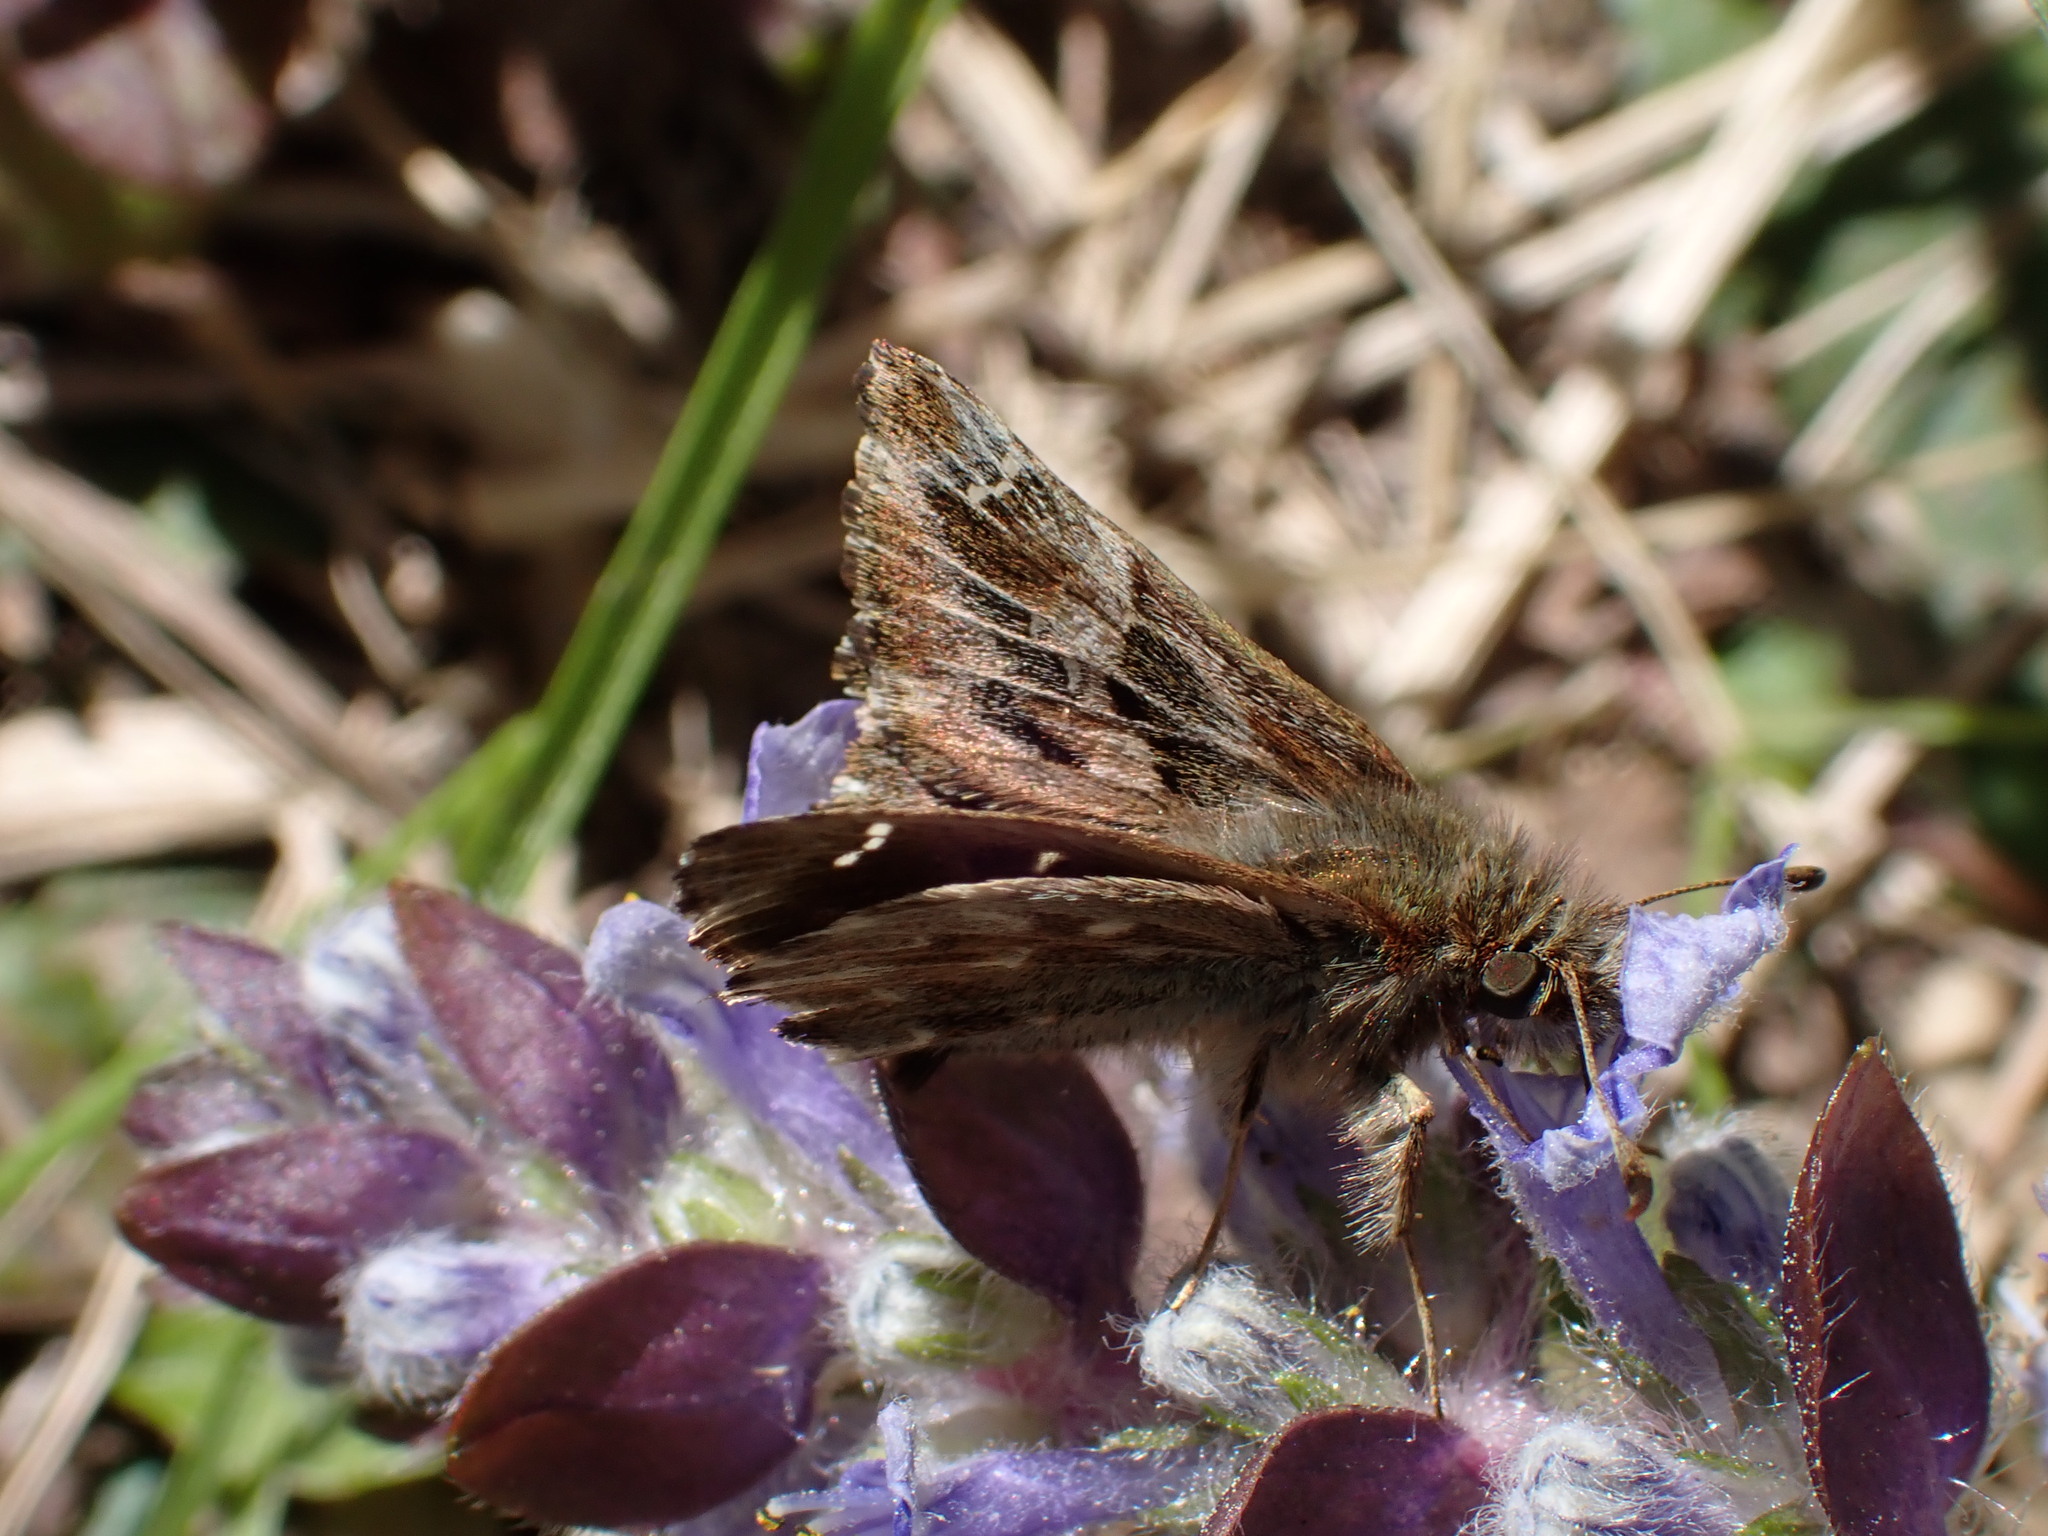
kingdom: Animalia
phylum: Arthropoda
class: Insecta
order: Lepidoptera
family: Hesperiidae
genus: Carcharodus
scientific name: Carcharodus alceae
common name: Mallow skipper
